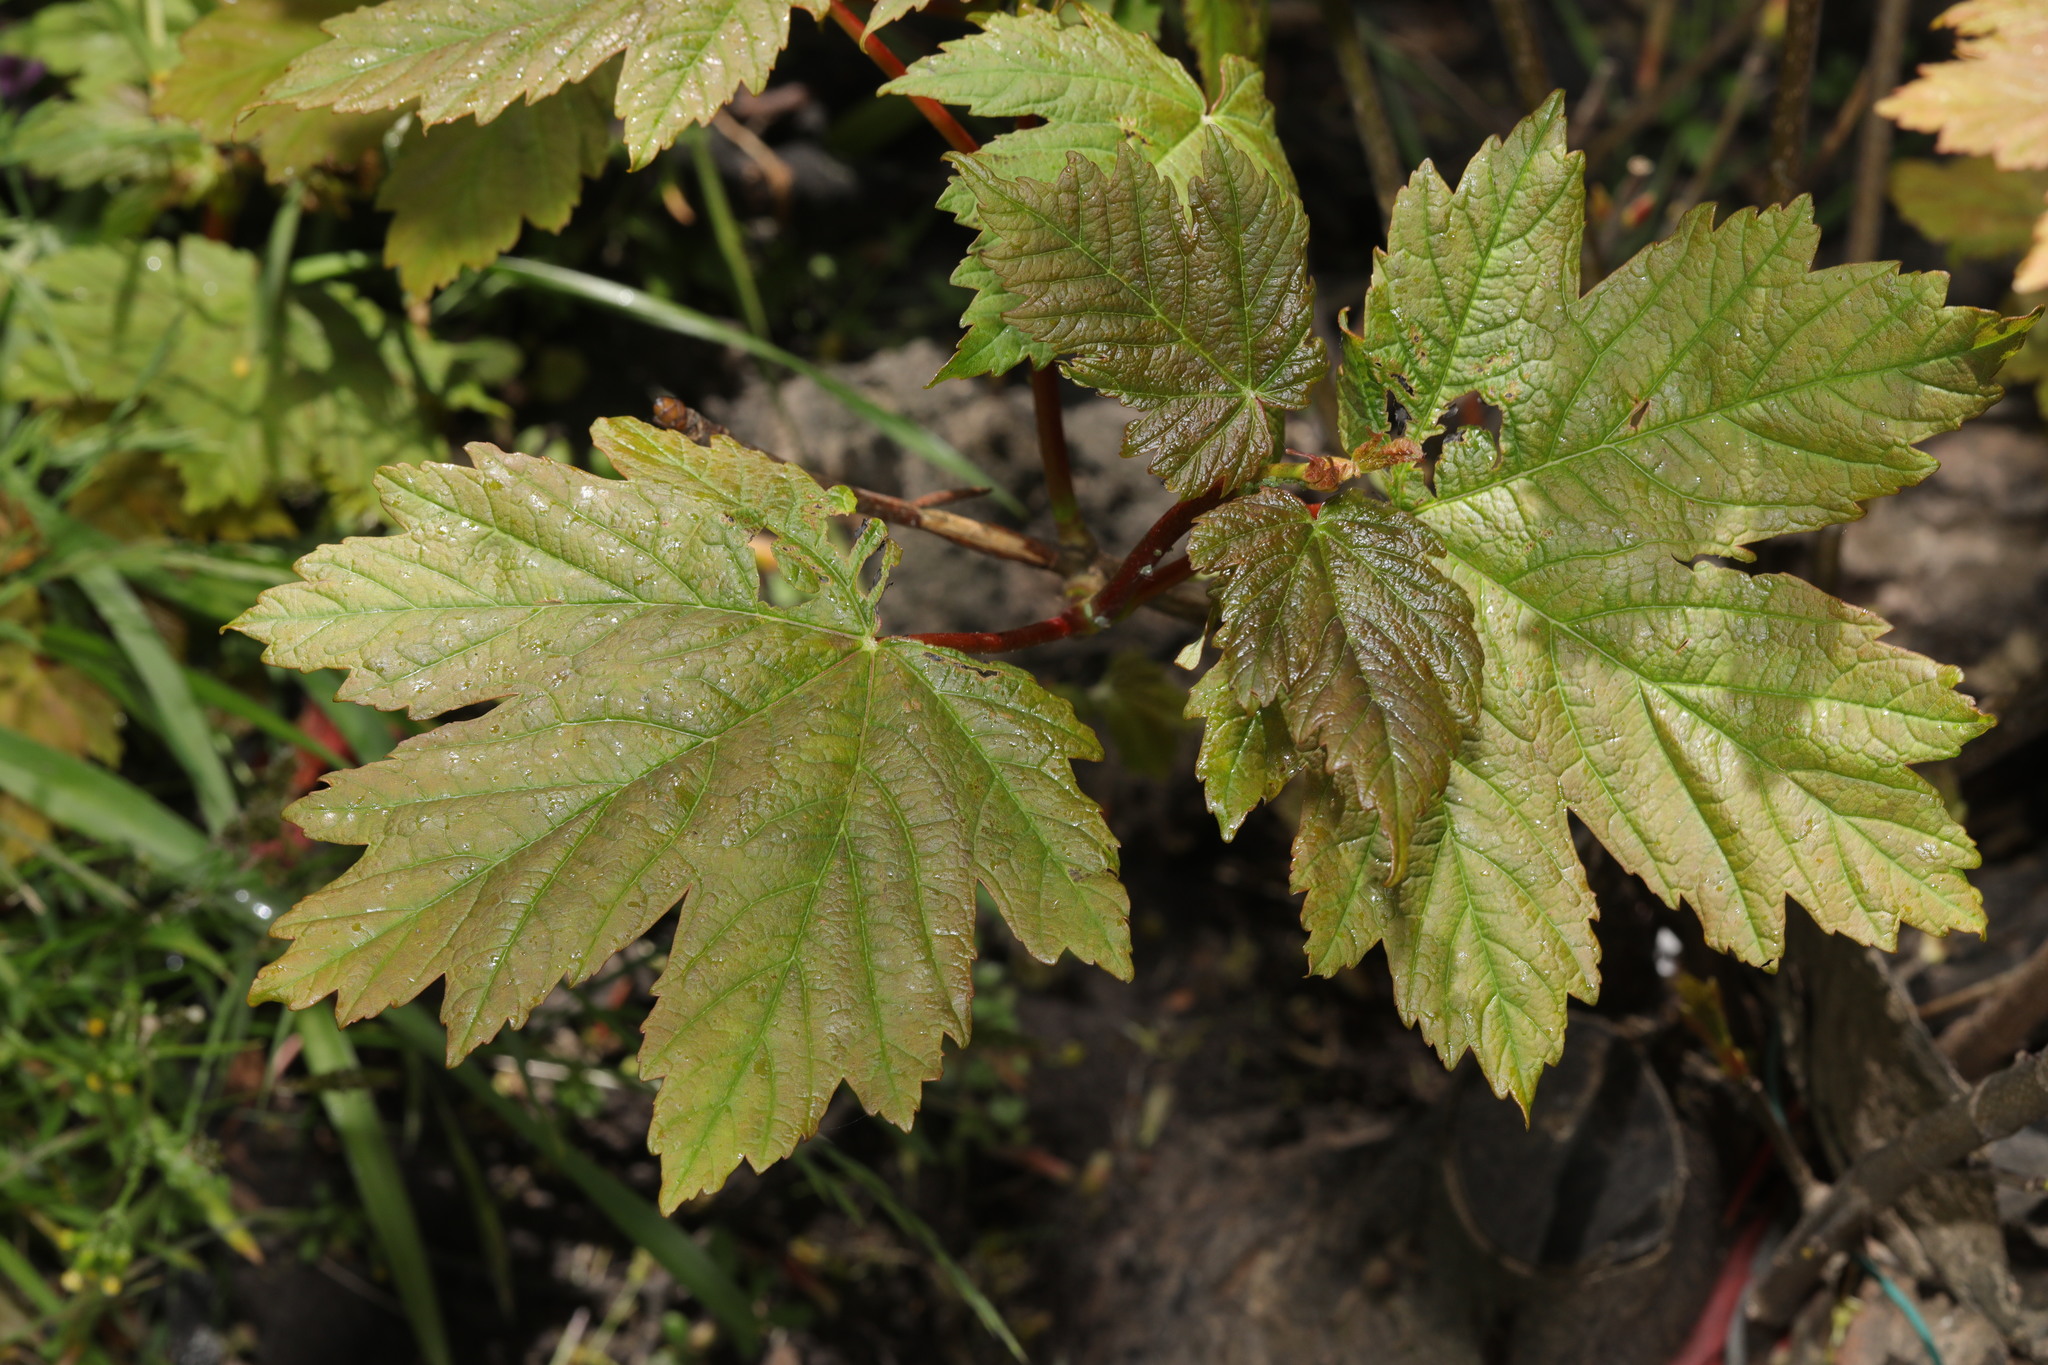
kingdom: Plantae
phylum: Tracheophyta
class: Magnoliopsida
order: Sapindales
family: Sapindaceae
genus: Acer
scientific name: Acer pseudoplatanus
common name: Sycamore
